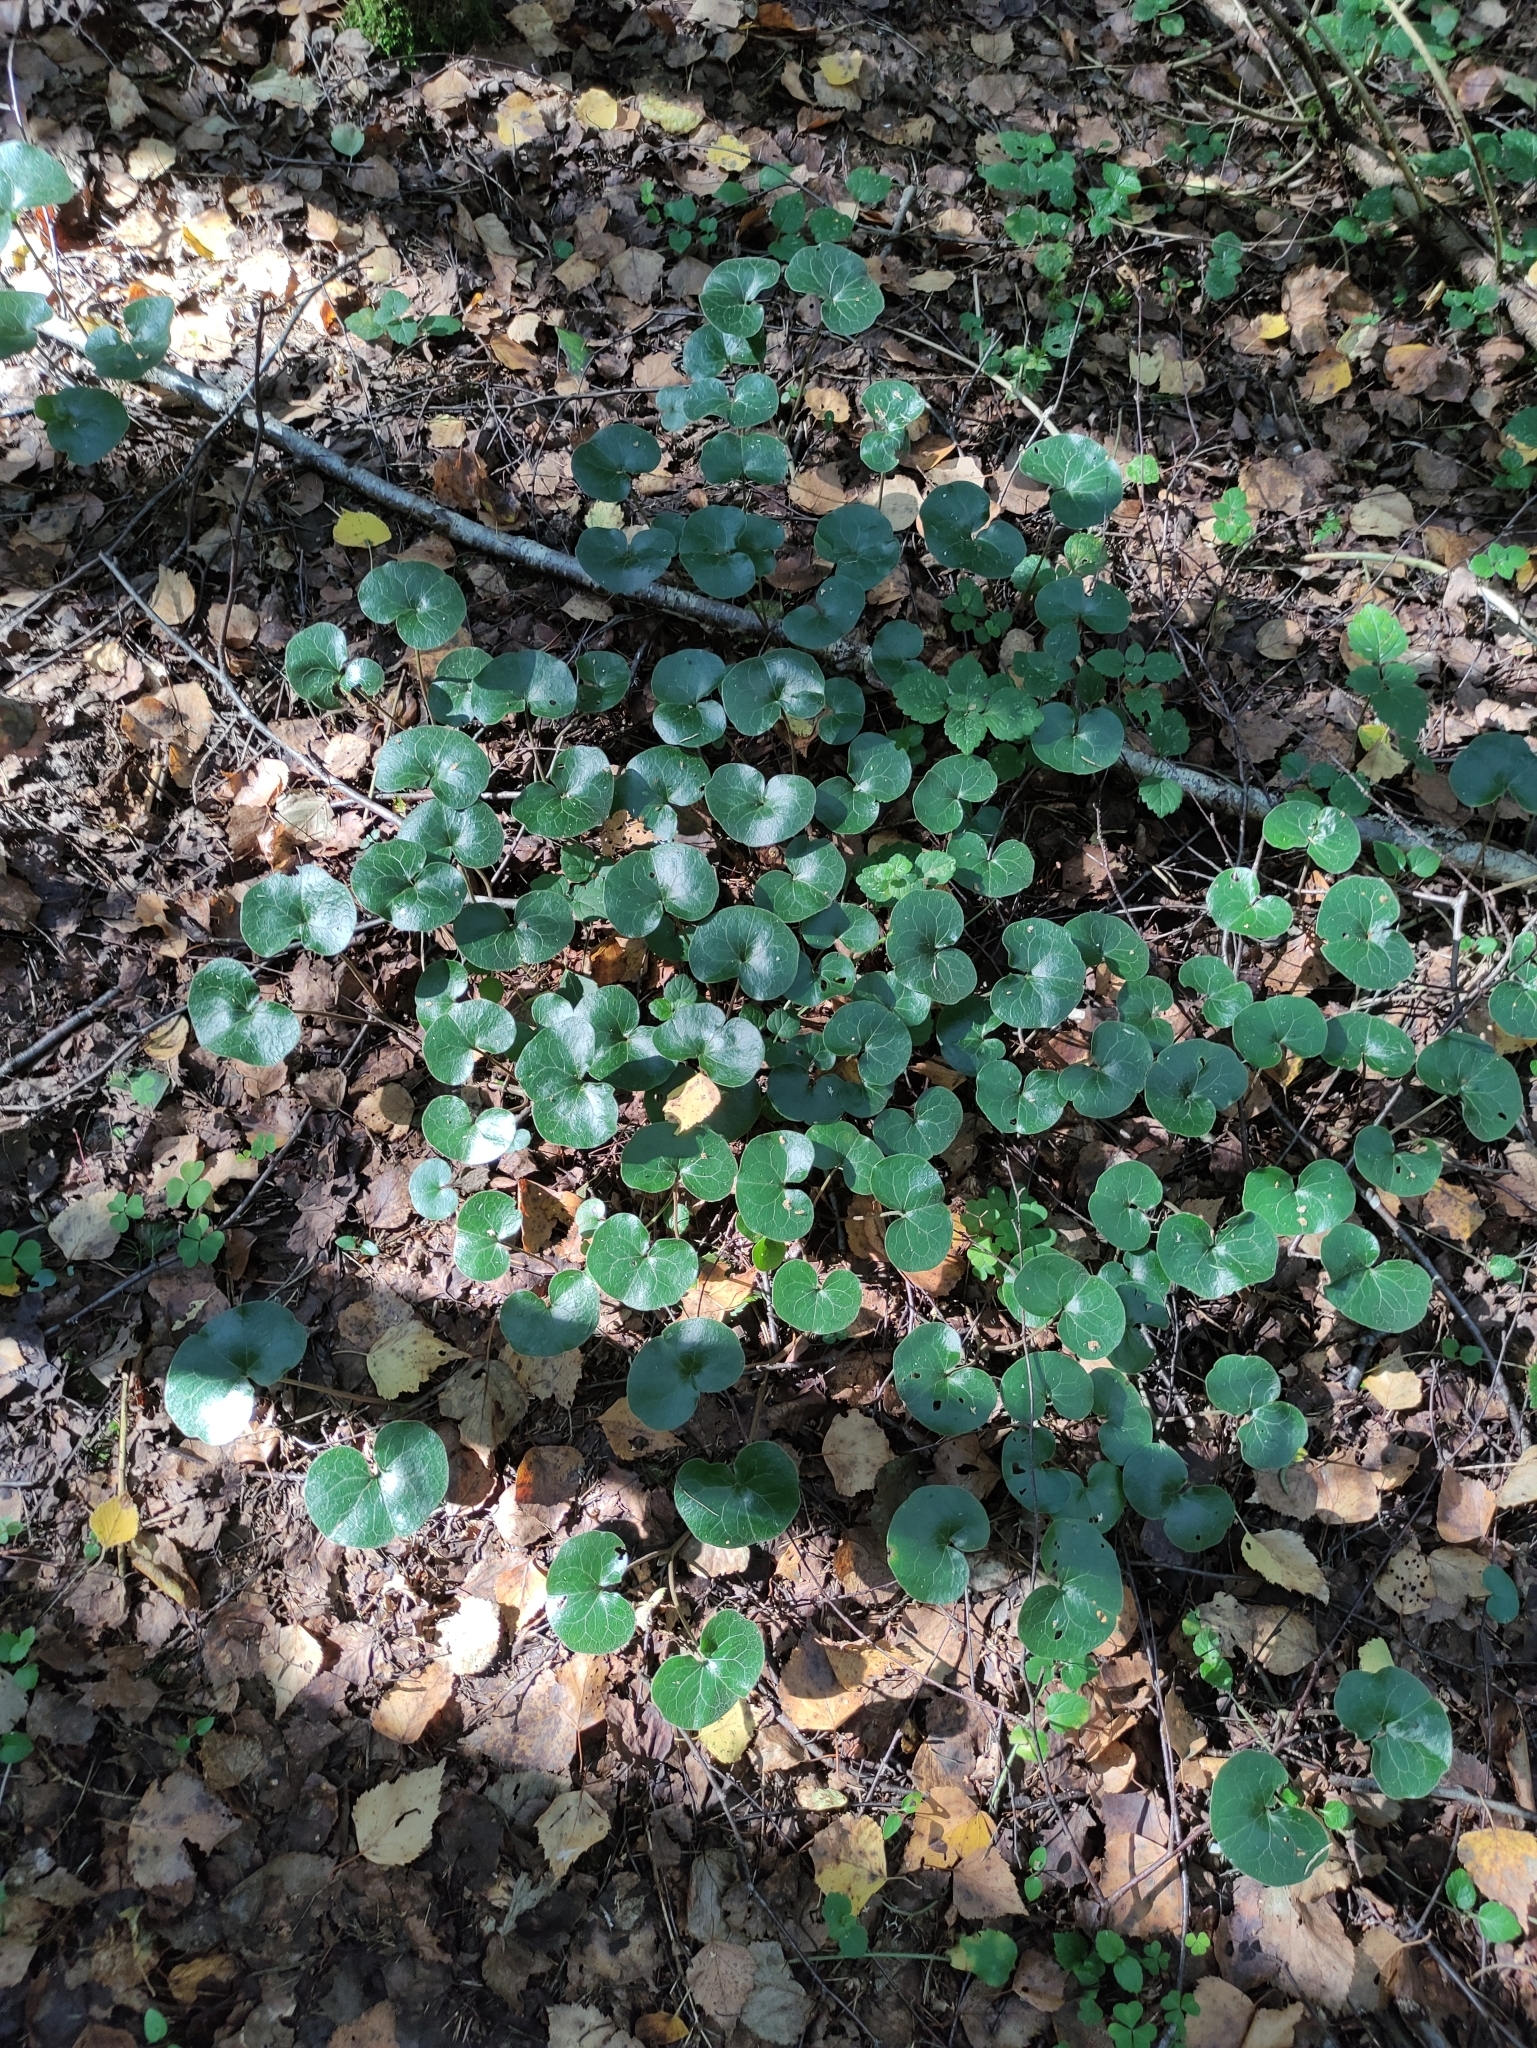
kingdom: Plantae
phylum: Tracheophyta
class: Magnoliopsida
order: Piperales
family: Aristolochiaceae
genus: Asarum
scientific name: Asarum europaeum
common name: Asarabacca
